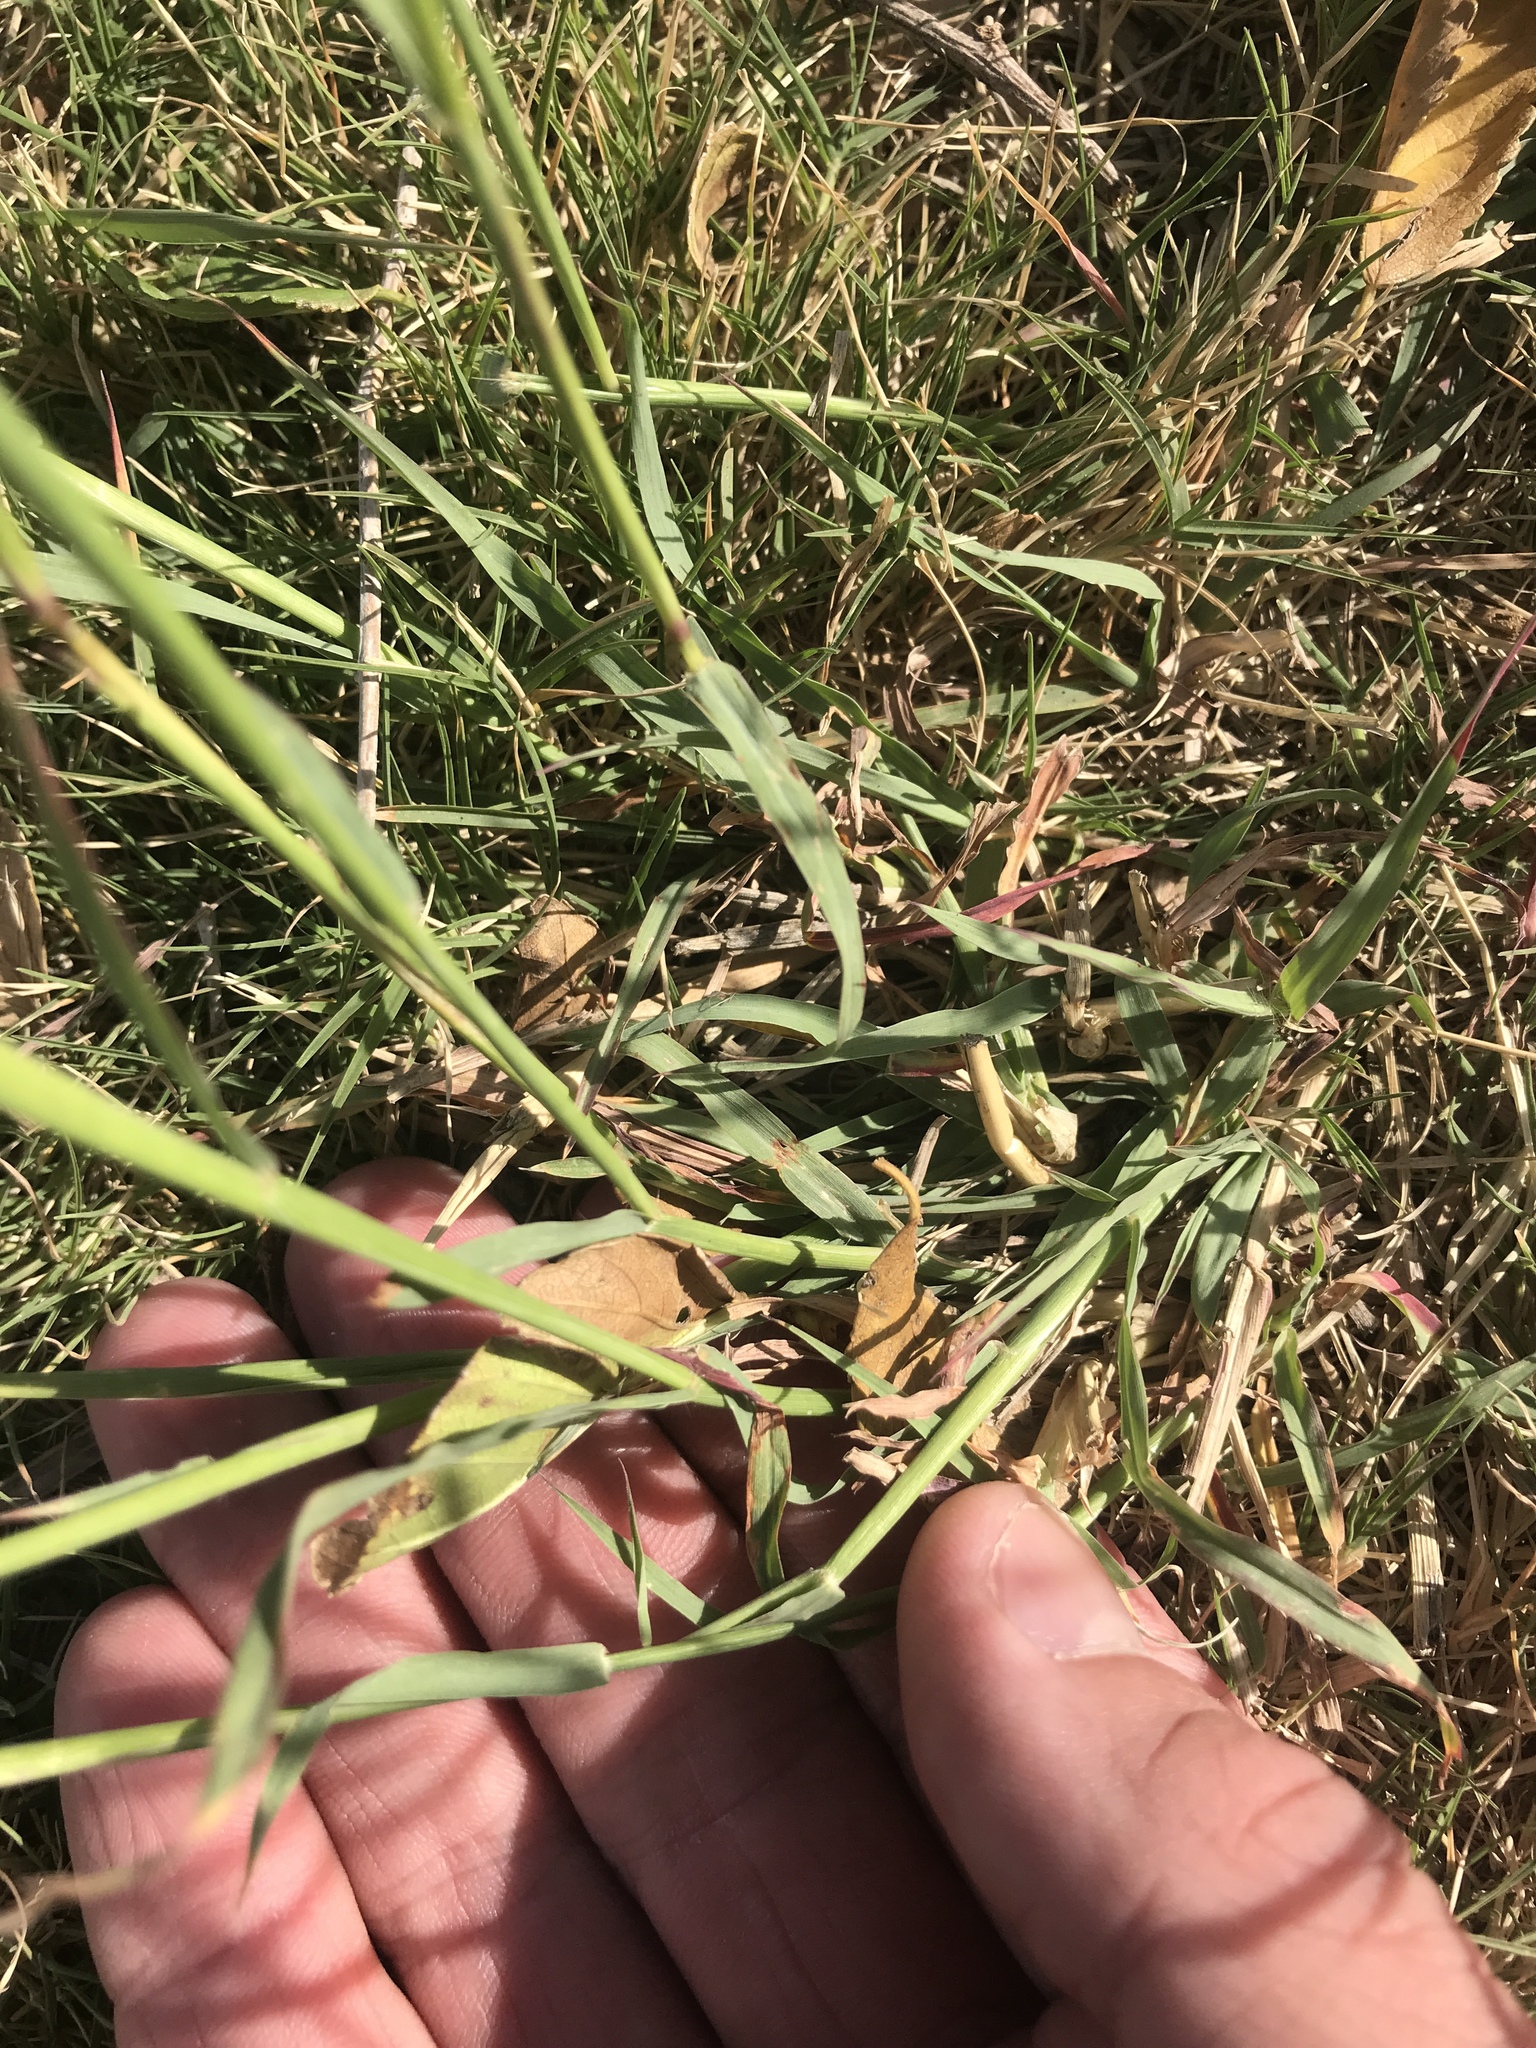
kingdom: Plantae
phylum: Tracheophyta
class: Liliopsida
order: Poales
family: Poaceae
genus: Bothriochloa
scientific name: Bothriochloa ischaemum
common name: Yellow bluestem
